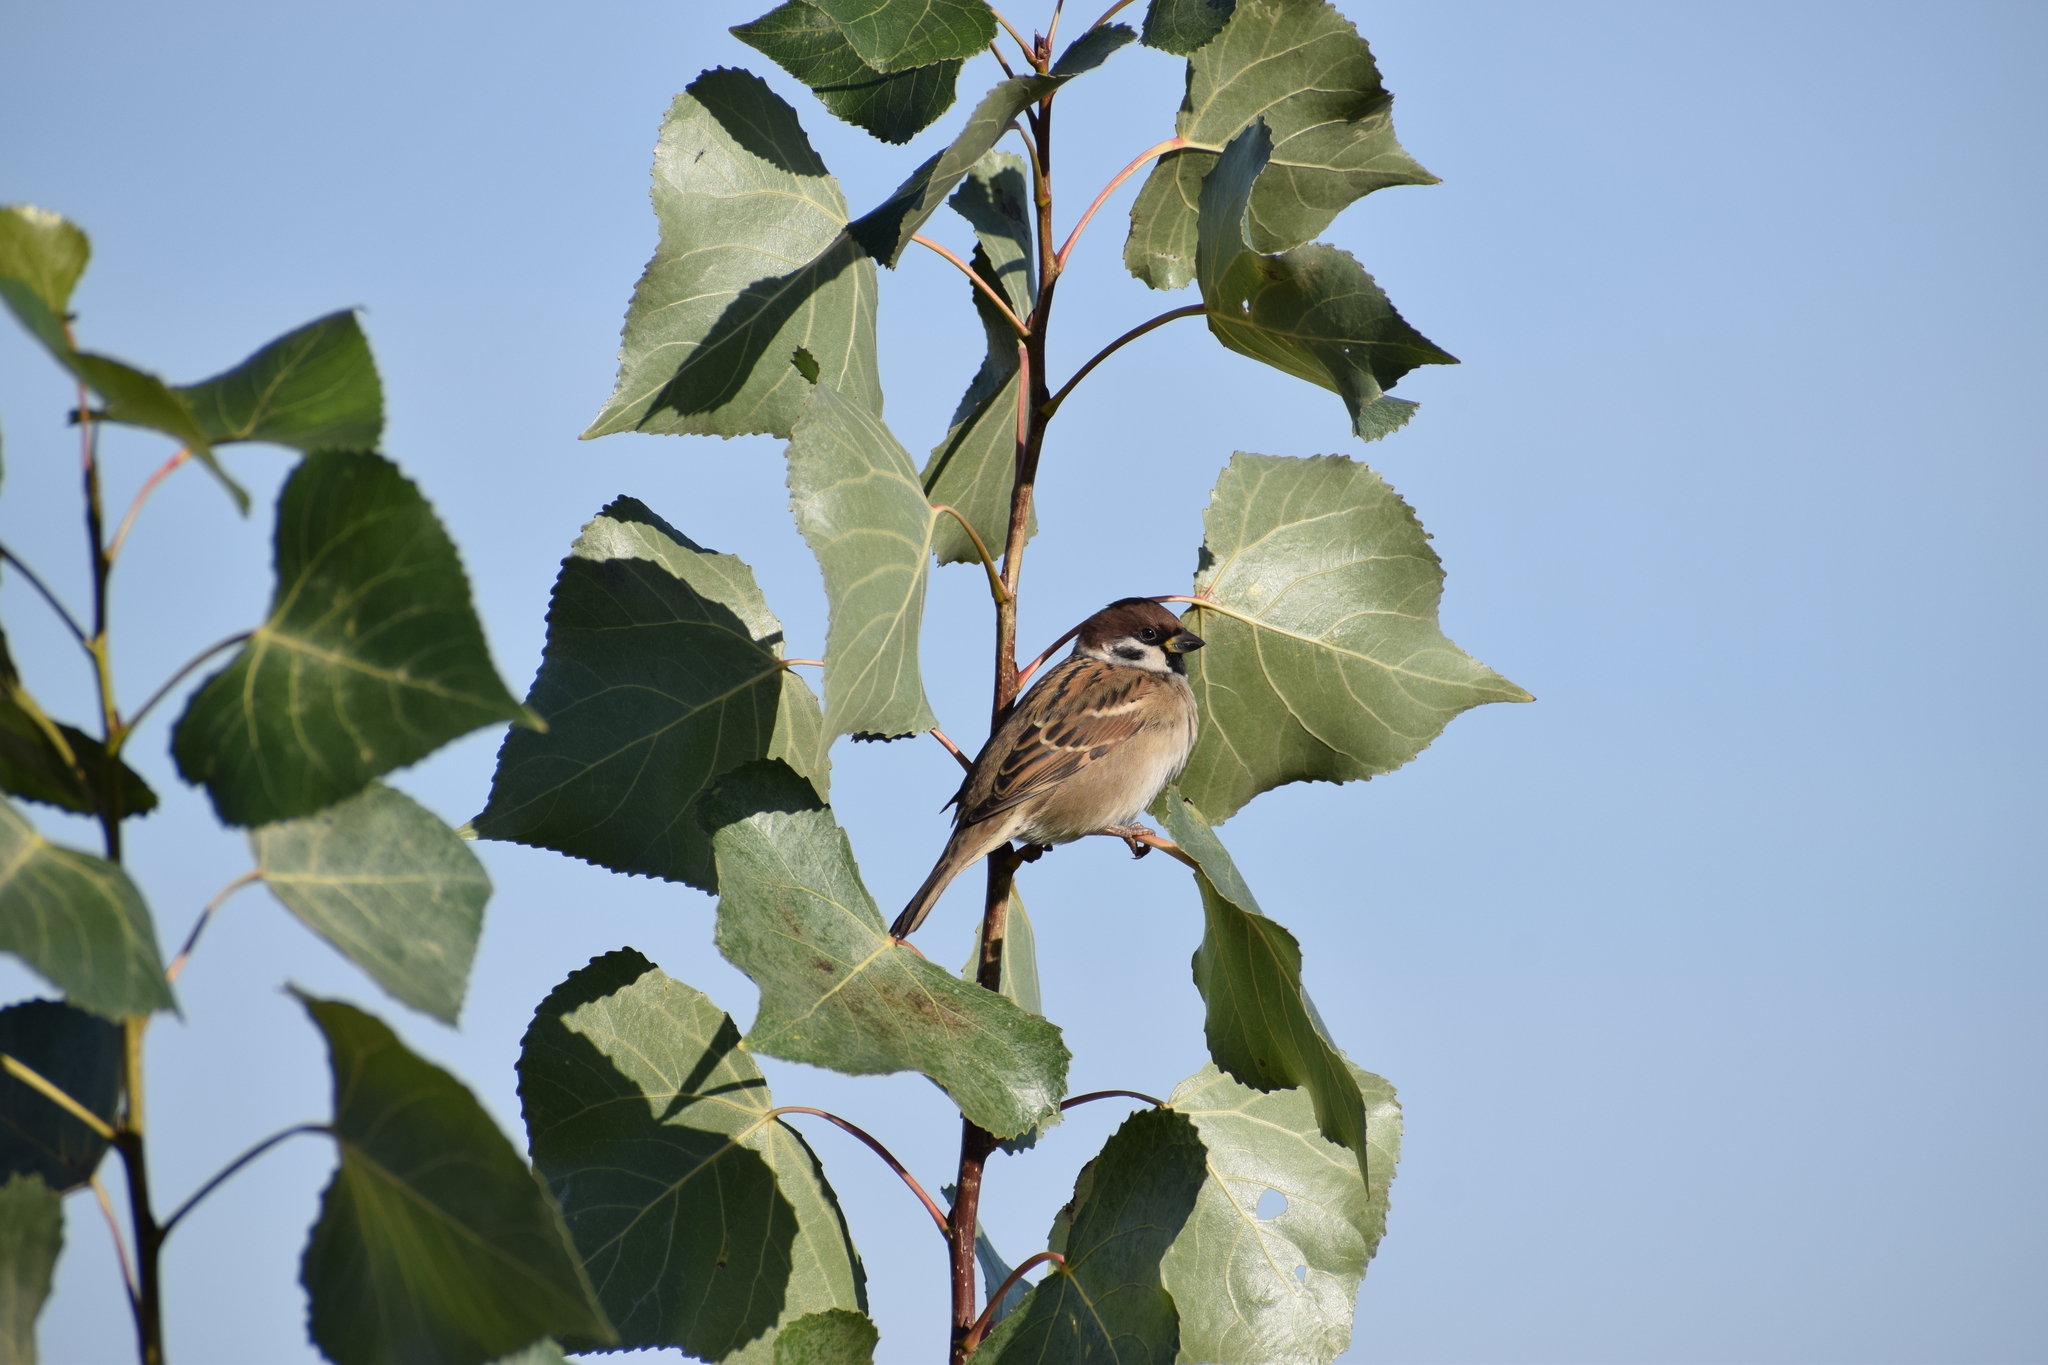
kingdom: Animalia
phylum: Chordata
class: Aves
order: Passeriformes
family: Passeridae
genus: Passer
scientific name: Passer montanus
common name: Eurasian tree sparrow
